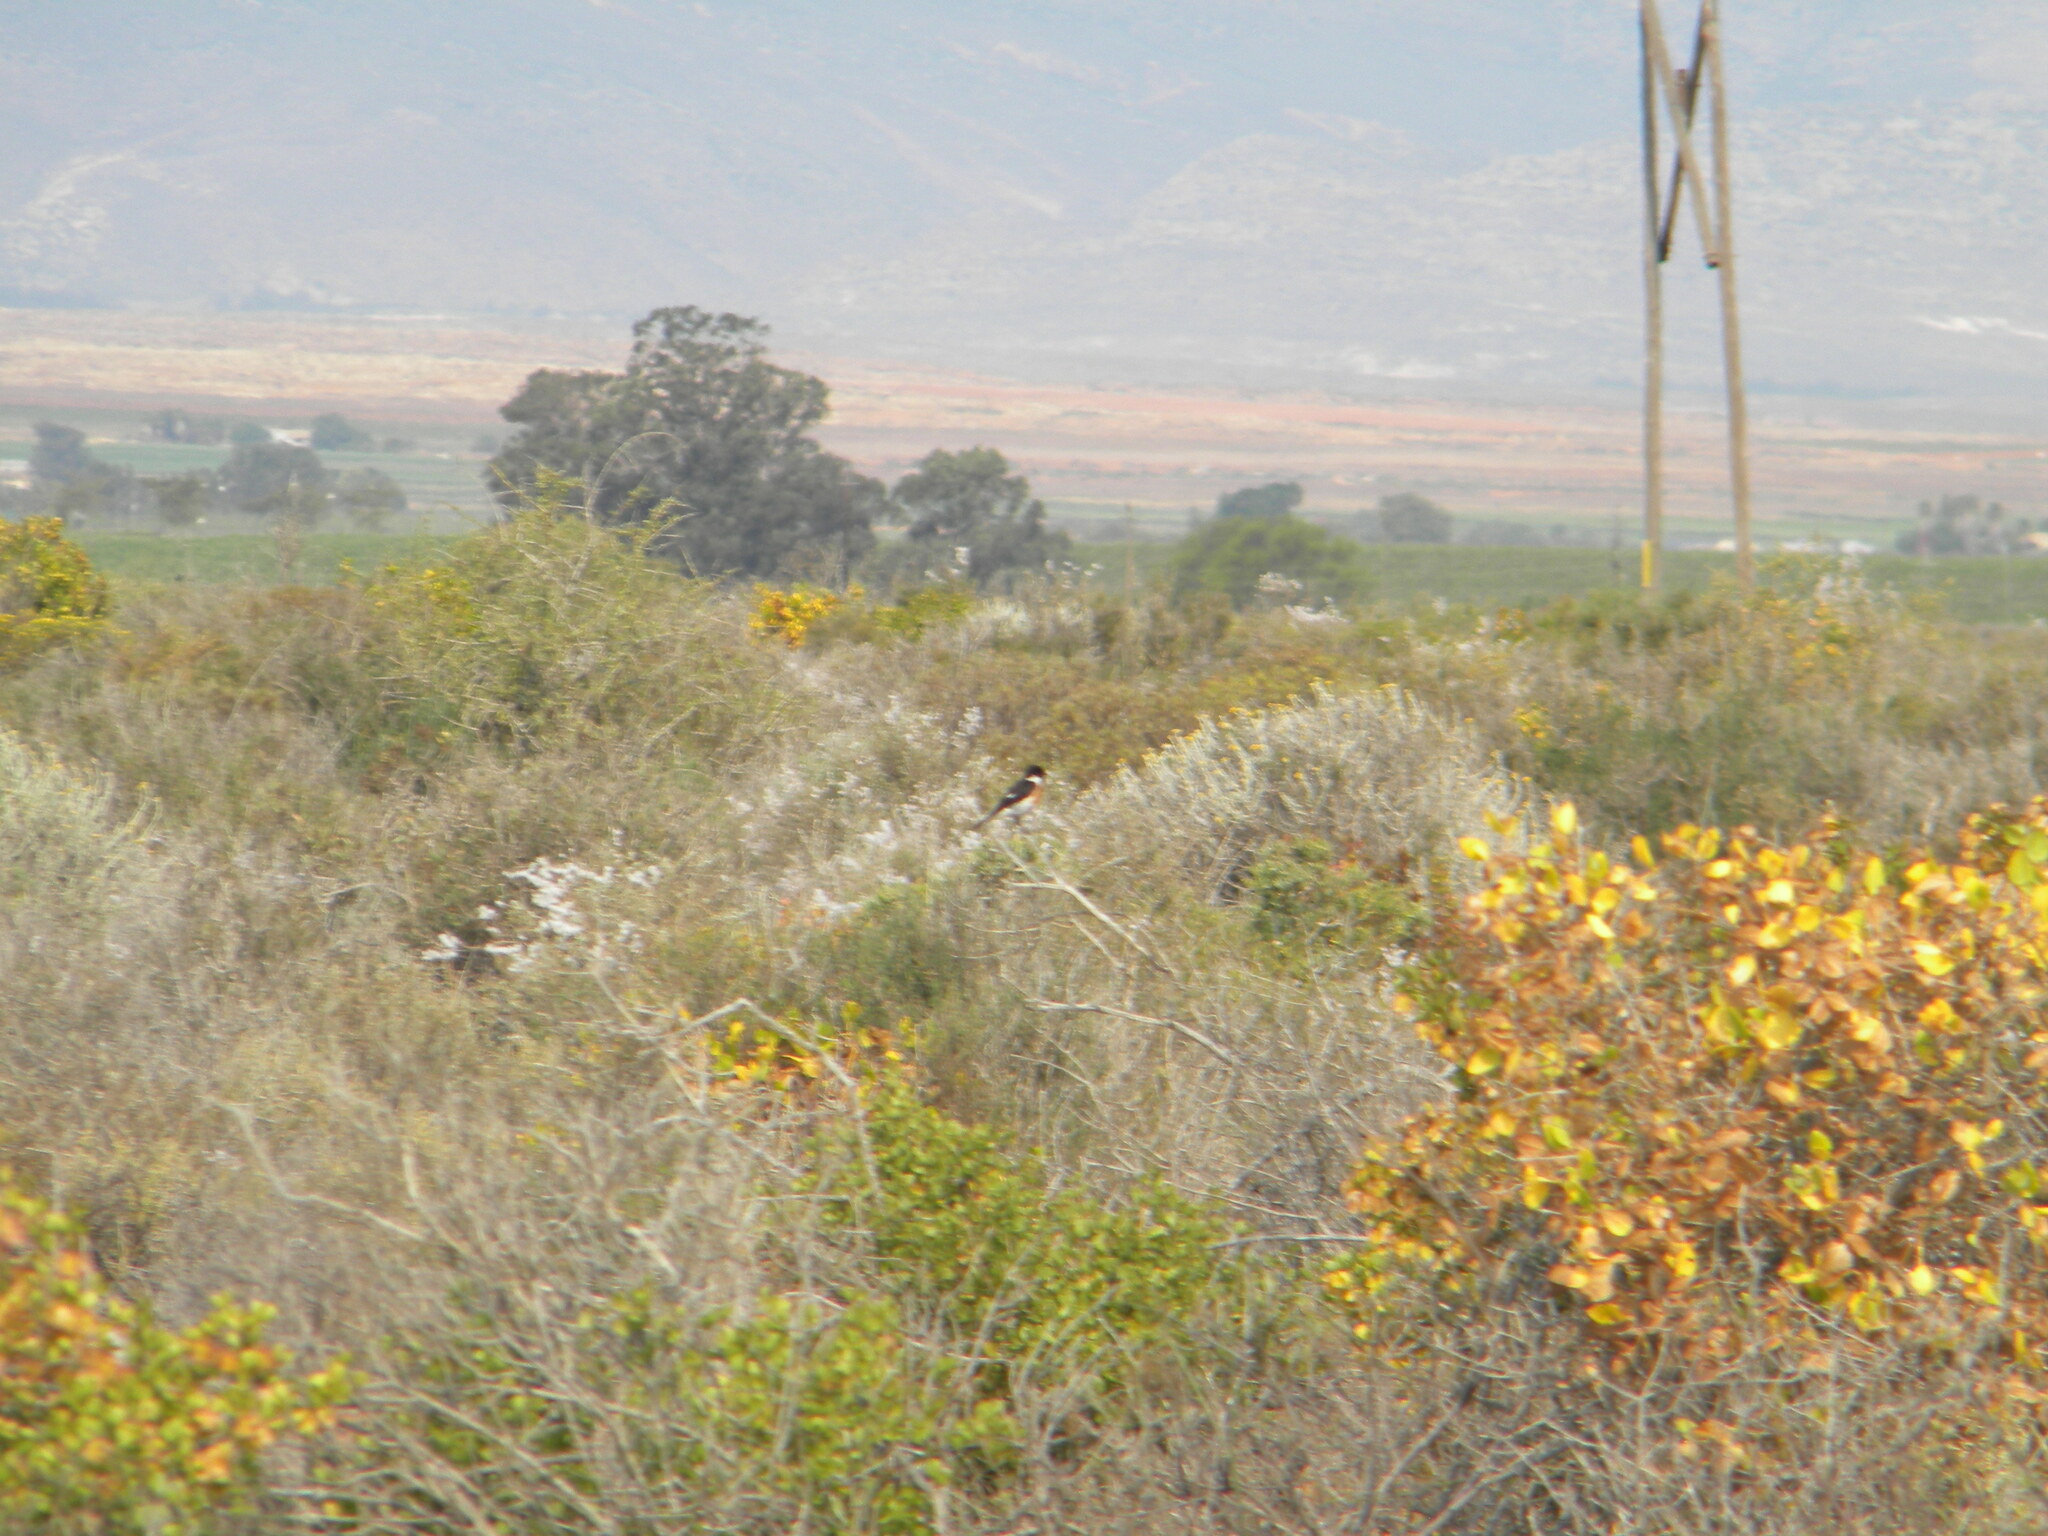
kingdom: Animalia
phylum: Chordata
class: Aves
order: Passeriformes
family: Muscicapidae
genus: Saxicola
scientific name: Saxicola torquatus
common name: African stonechat
